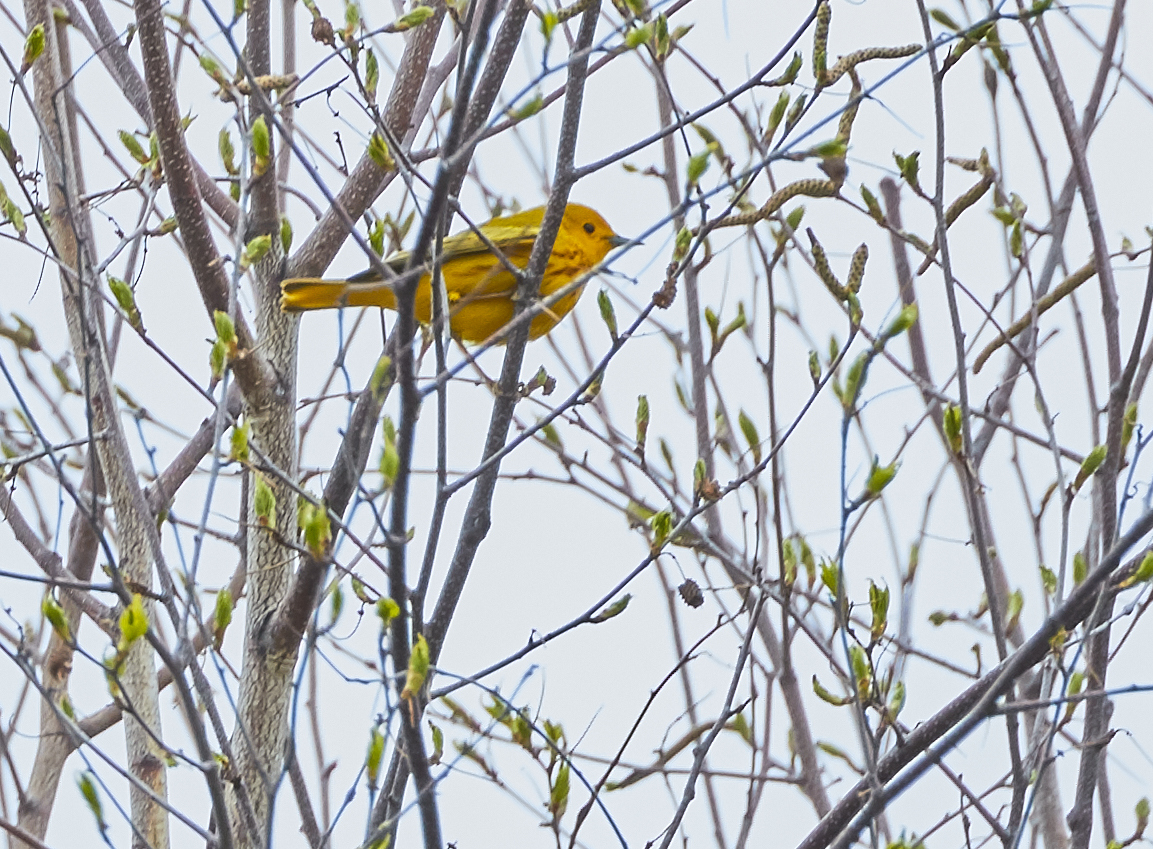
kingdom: Animalia
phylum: Chordata
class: Aves
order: Passeriformes
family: Parulidae
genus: Setophaga
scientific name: Setophaga petechia
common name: Yellow warbler
